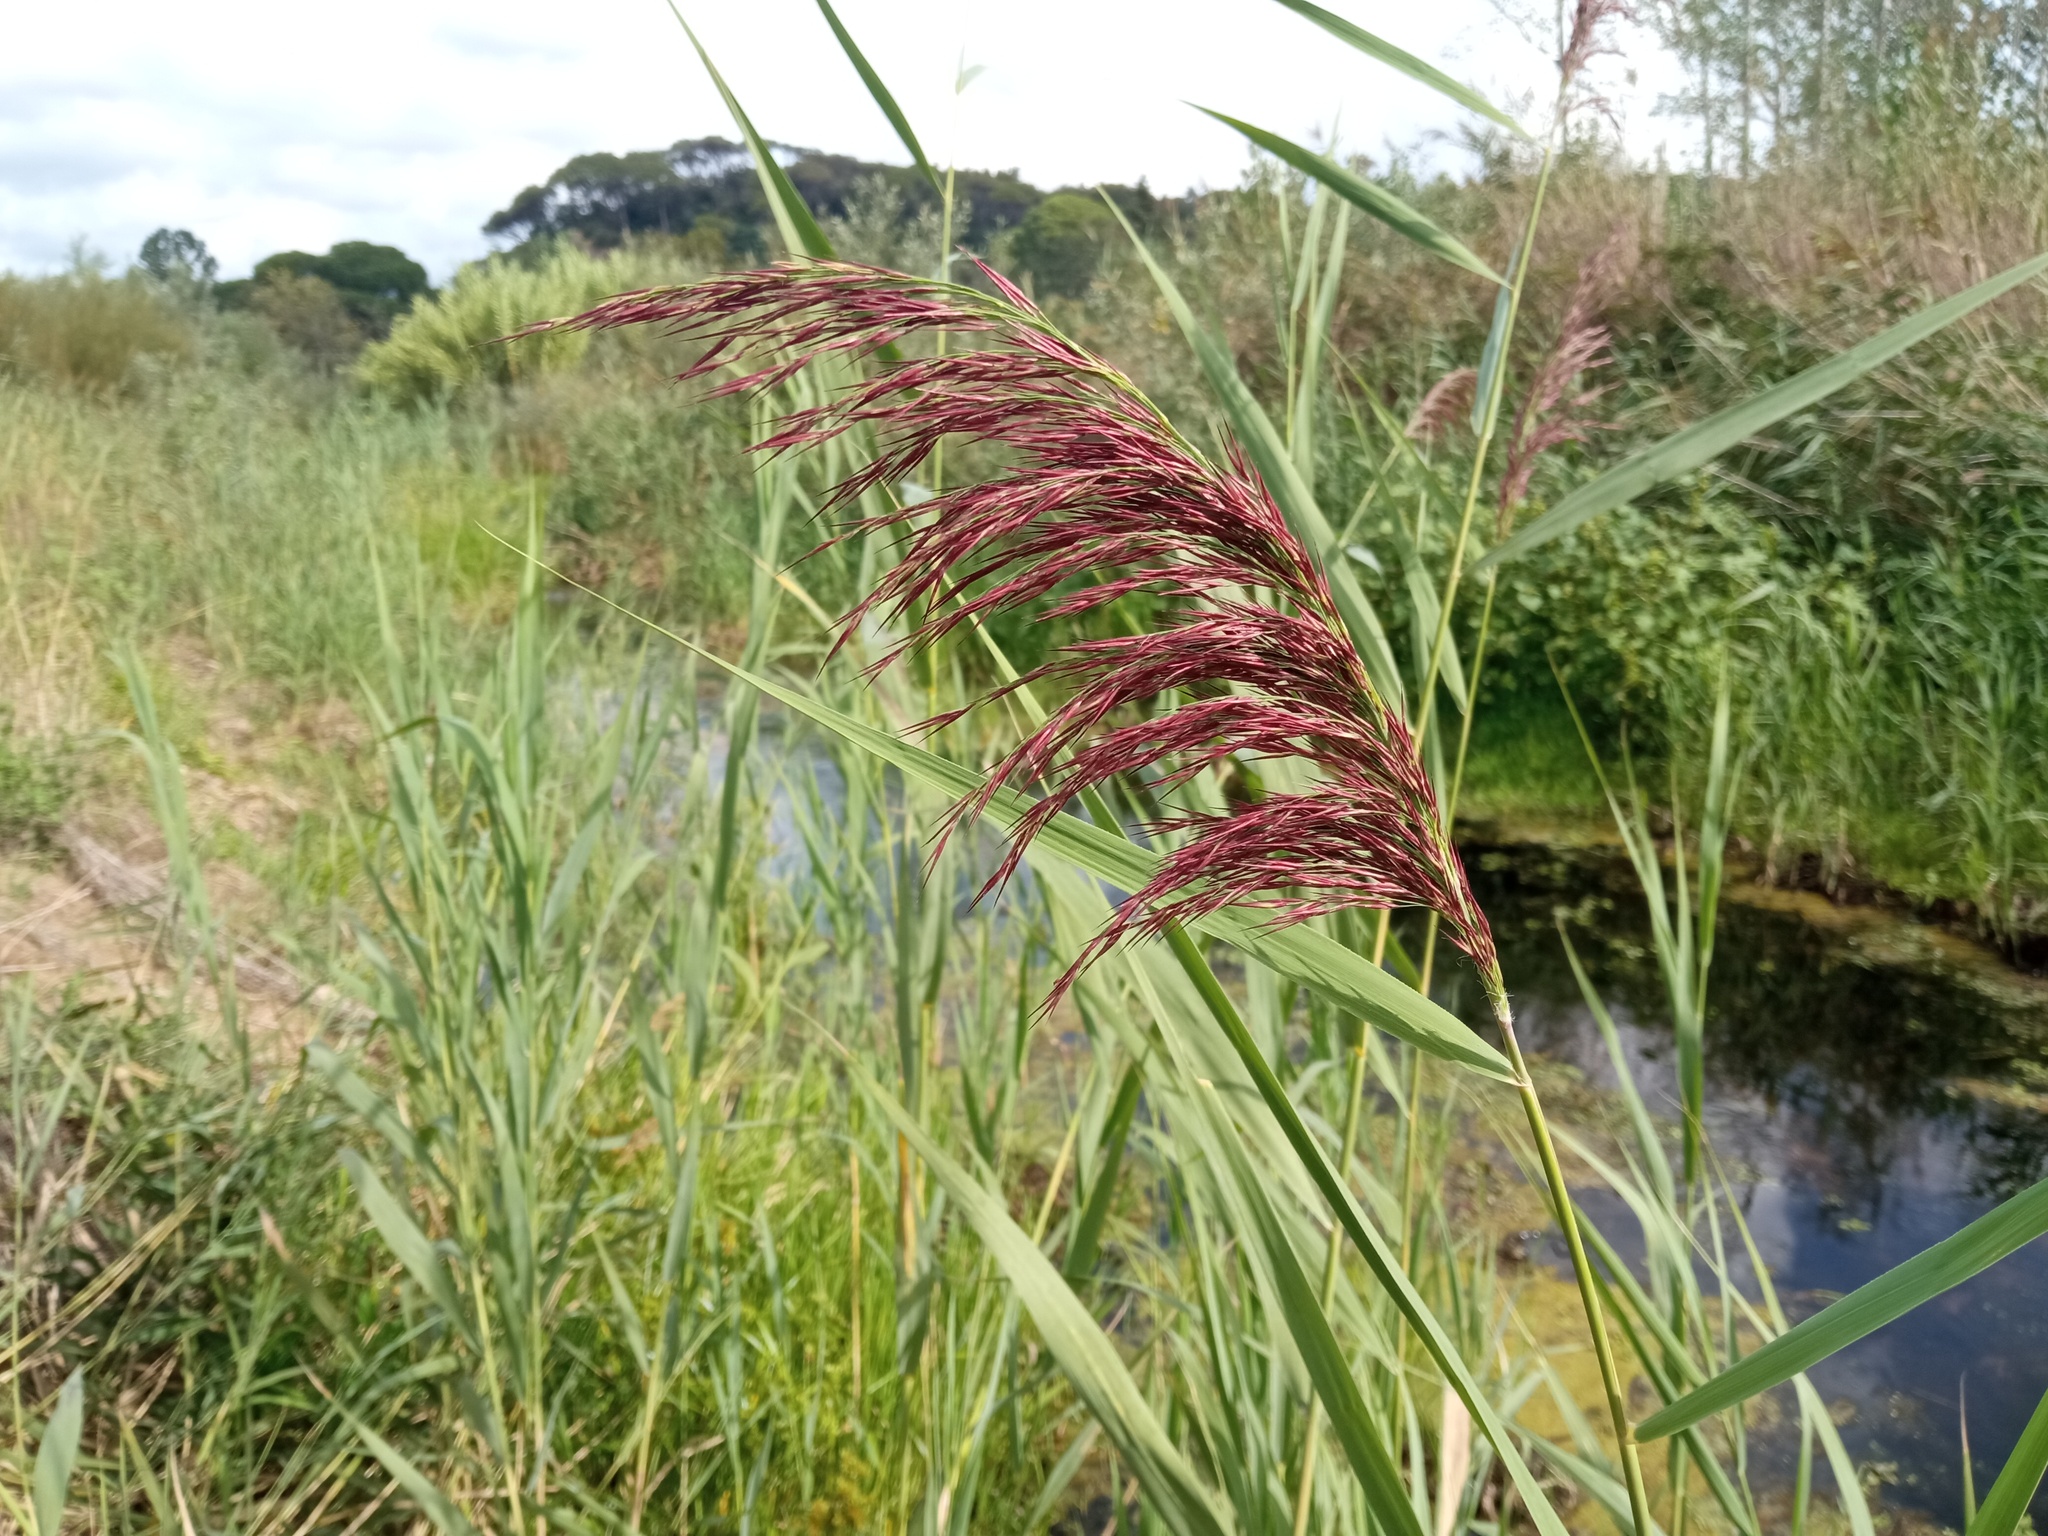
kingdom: Plantae
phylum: Tracheophyta
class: Liliopsida
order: Poales
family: Poaceae
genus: Phragmites
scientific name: Phragmites australis
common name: Common reed
